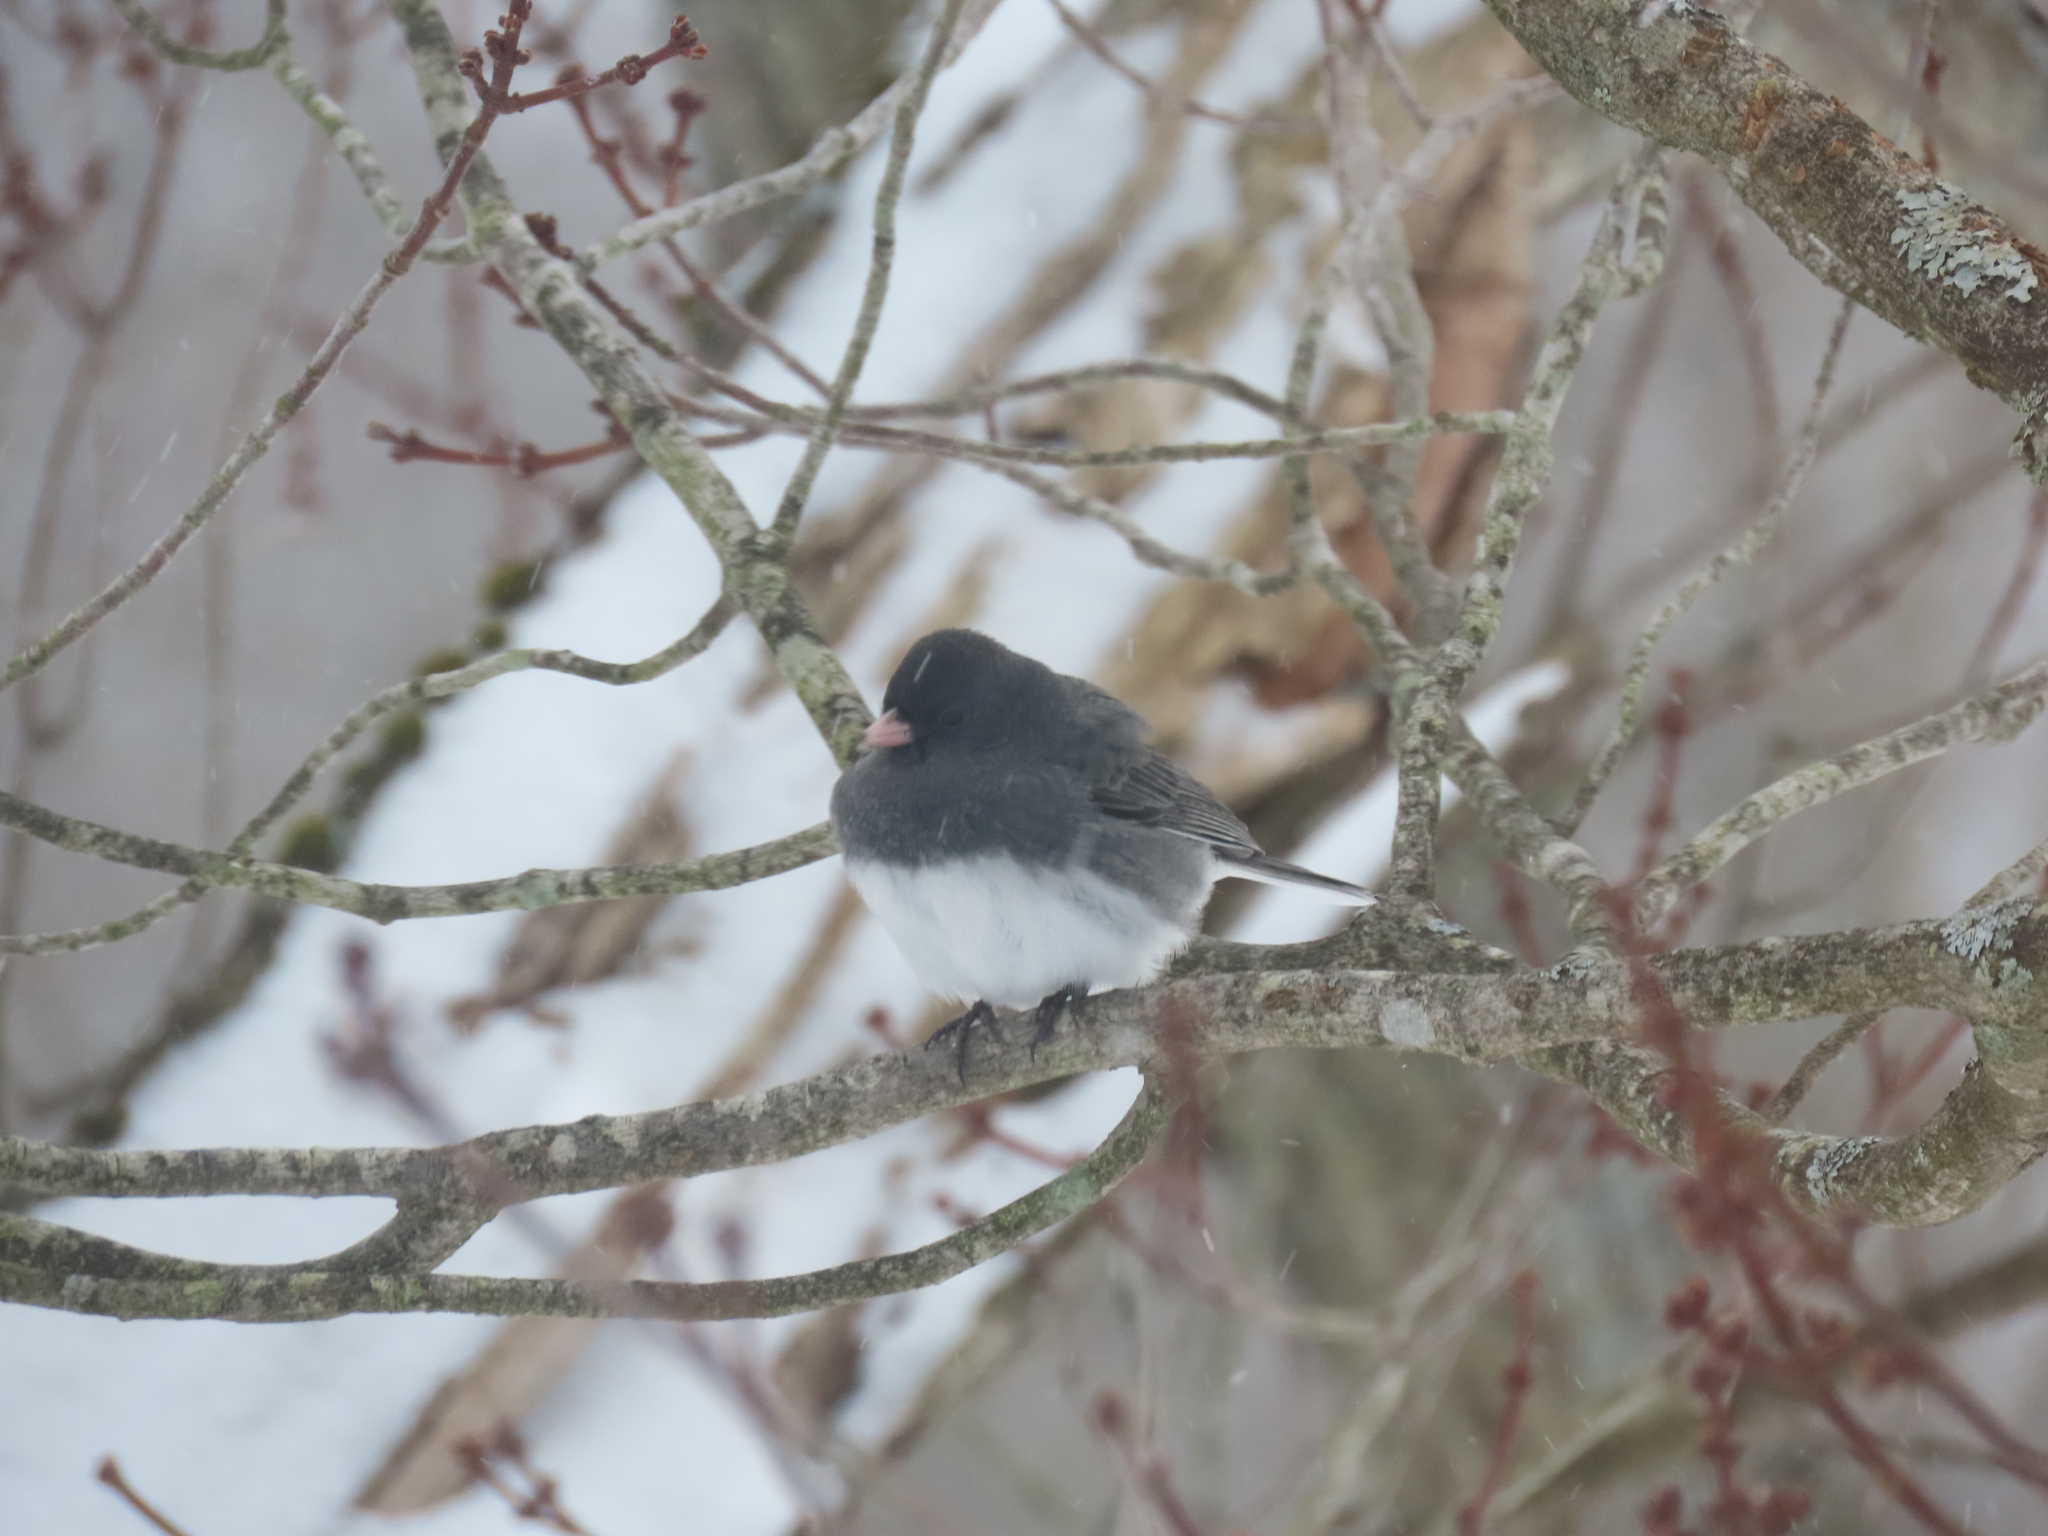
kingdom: Animalia
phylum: Chordata
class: Aves
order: Passeriformes
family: Passerellidae
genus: Junco
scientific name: Junco hyemalis
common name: Dark-eyed junco
